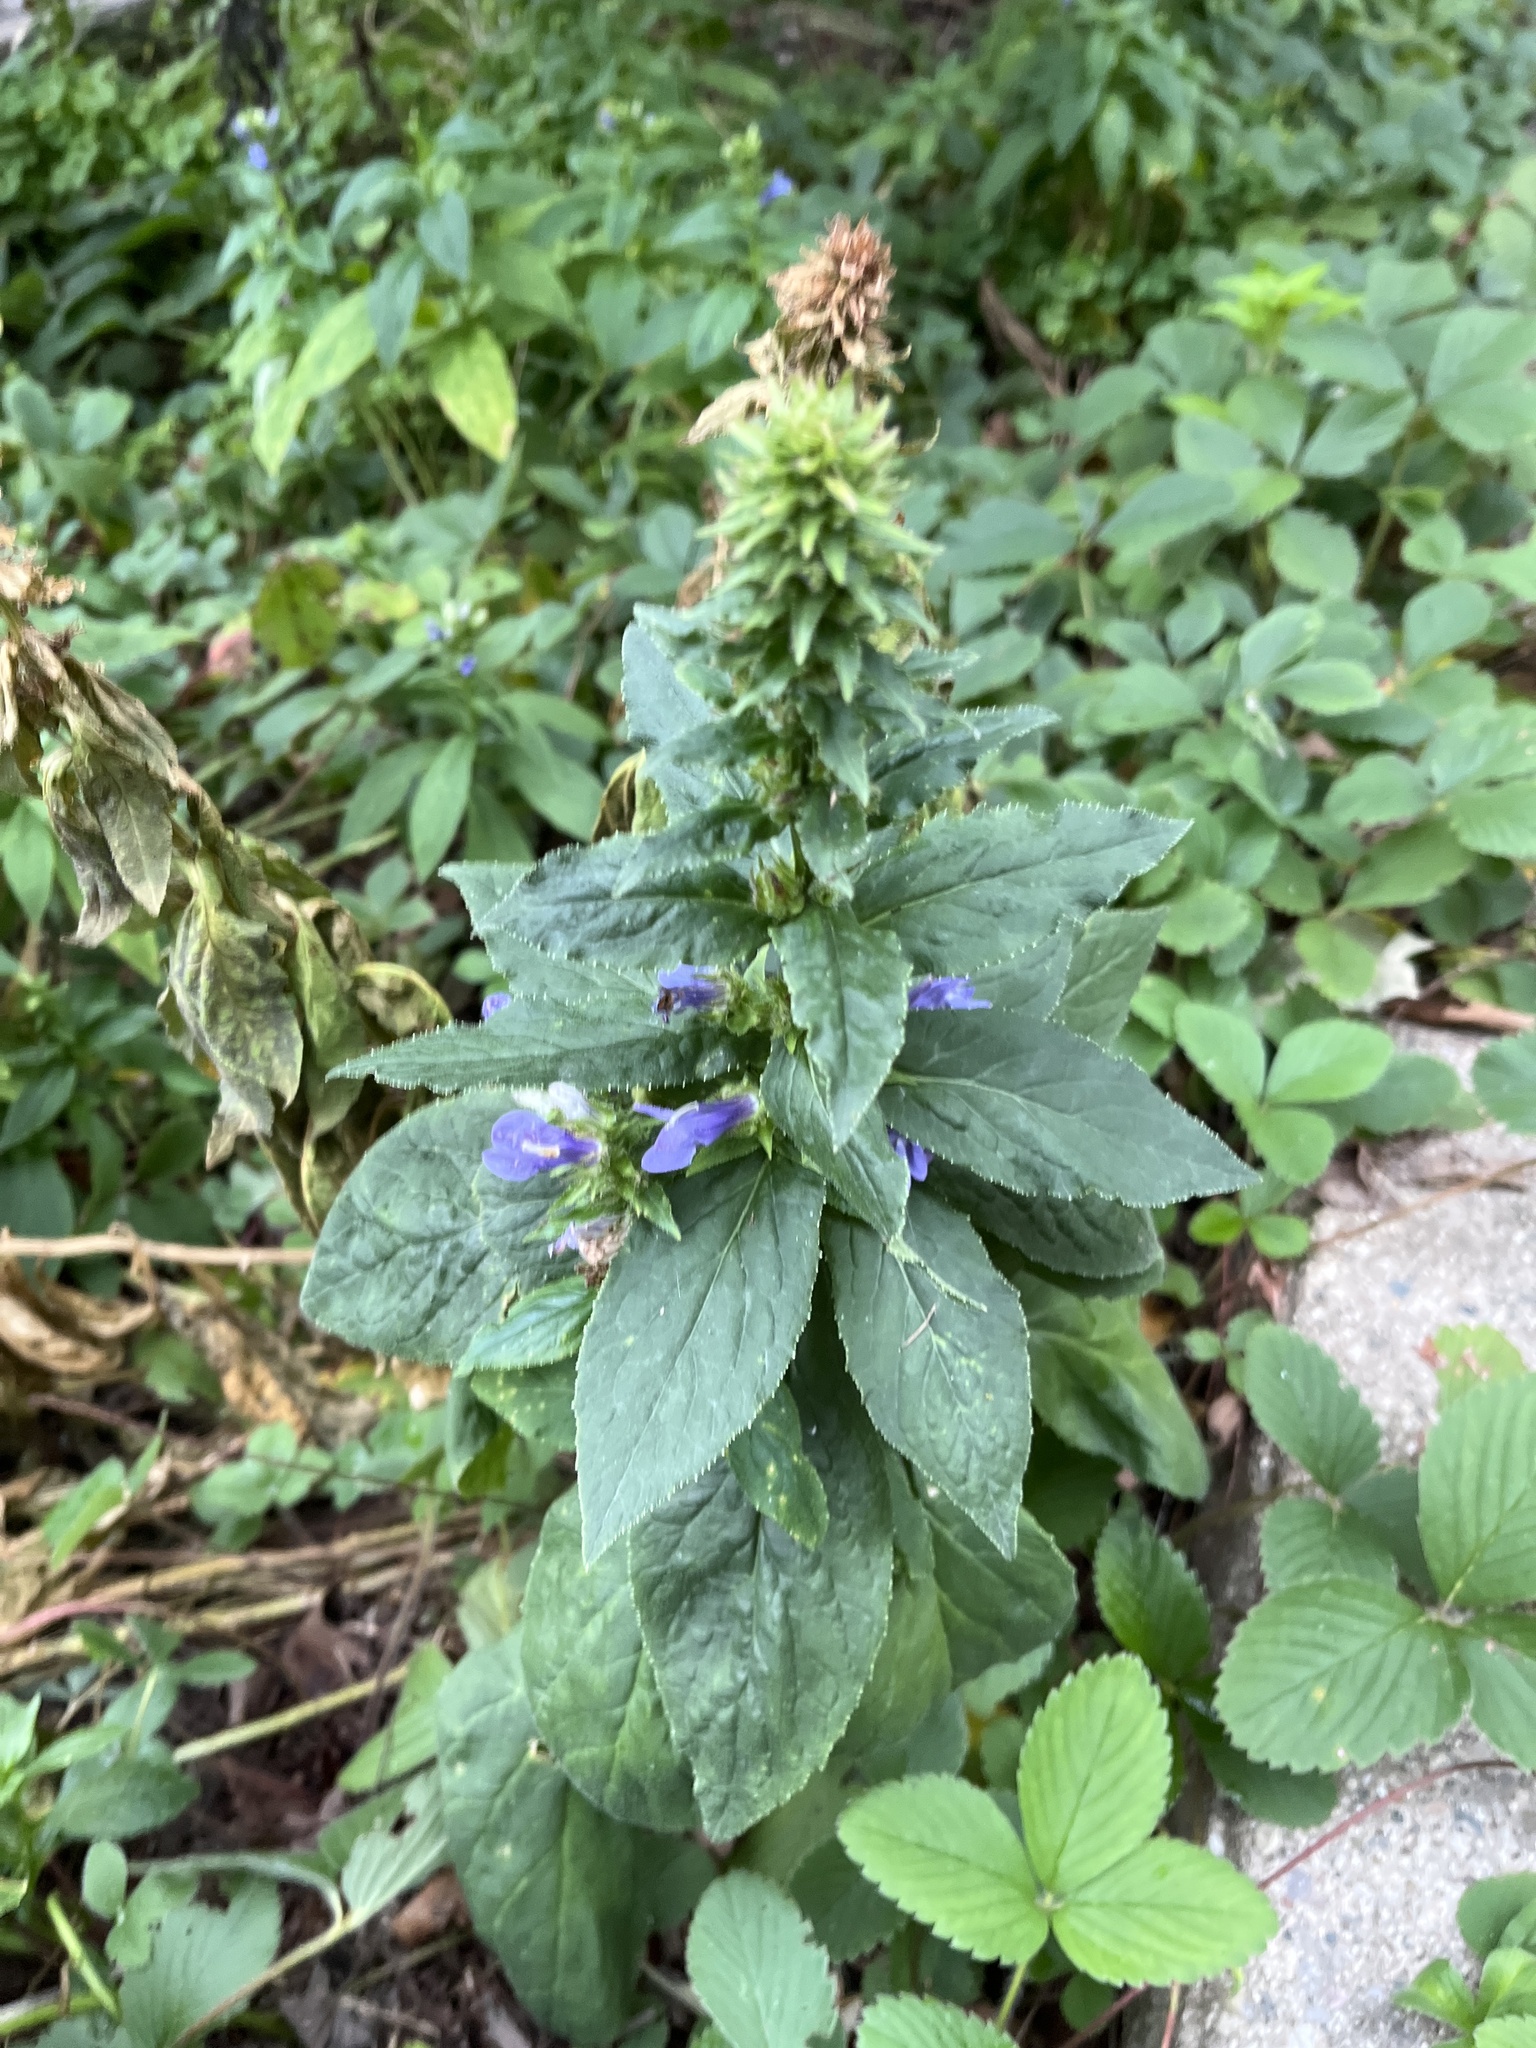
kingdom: Plantae
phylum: Tracheophyta
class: Magnoliopsida
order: Asterales
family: Campanulaceae
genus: Lobelia
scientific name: Lobelia siphilitica
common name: Great lobelia
